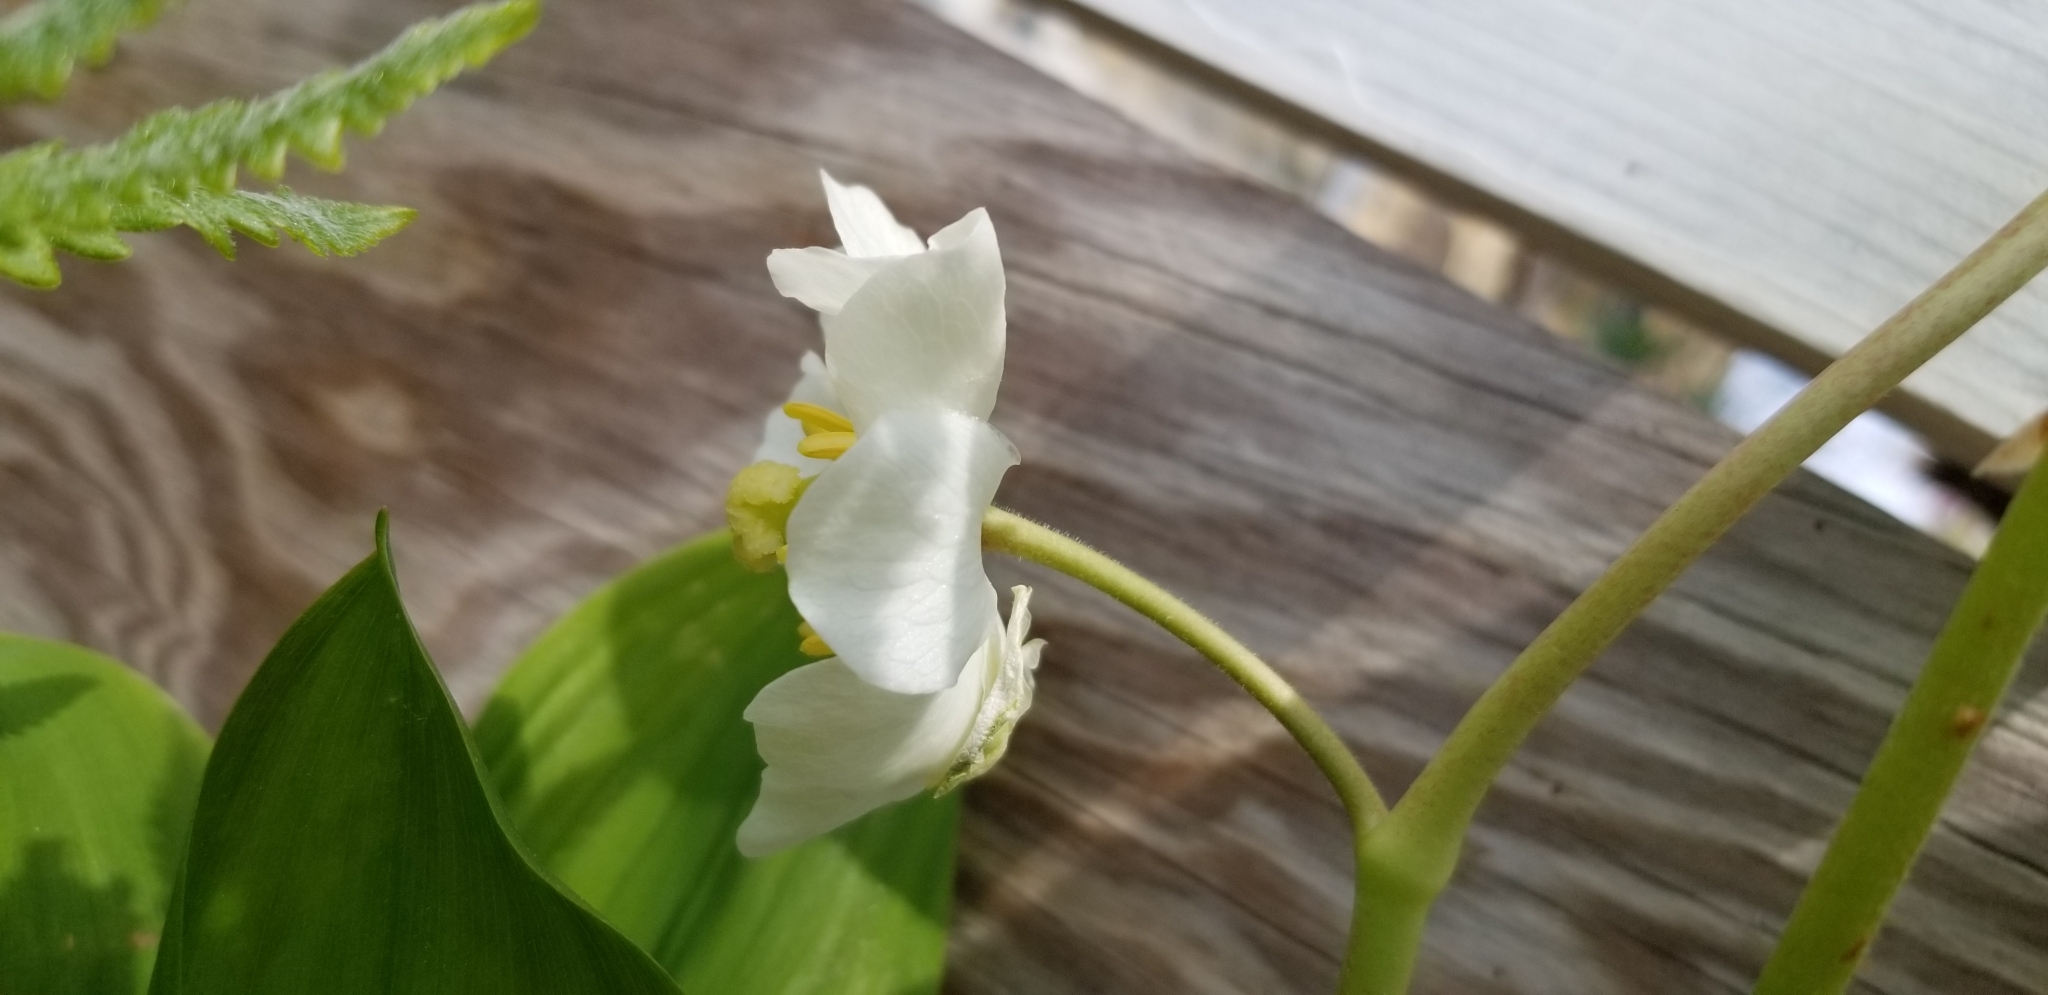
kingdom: Plantae
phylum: Tracheophyta
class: Magnoliopsida
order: Ranunculales
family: Berberidaceae
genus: Podophyllum
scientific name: Podophyllum peltatum
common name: Wild mandrake
